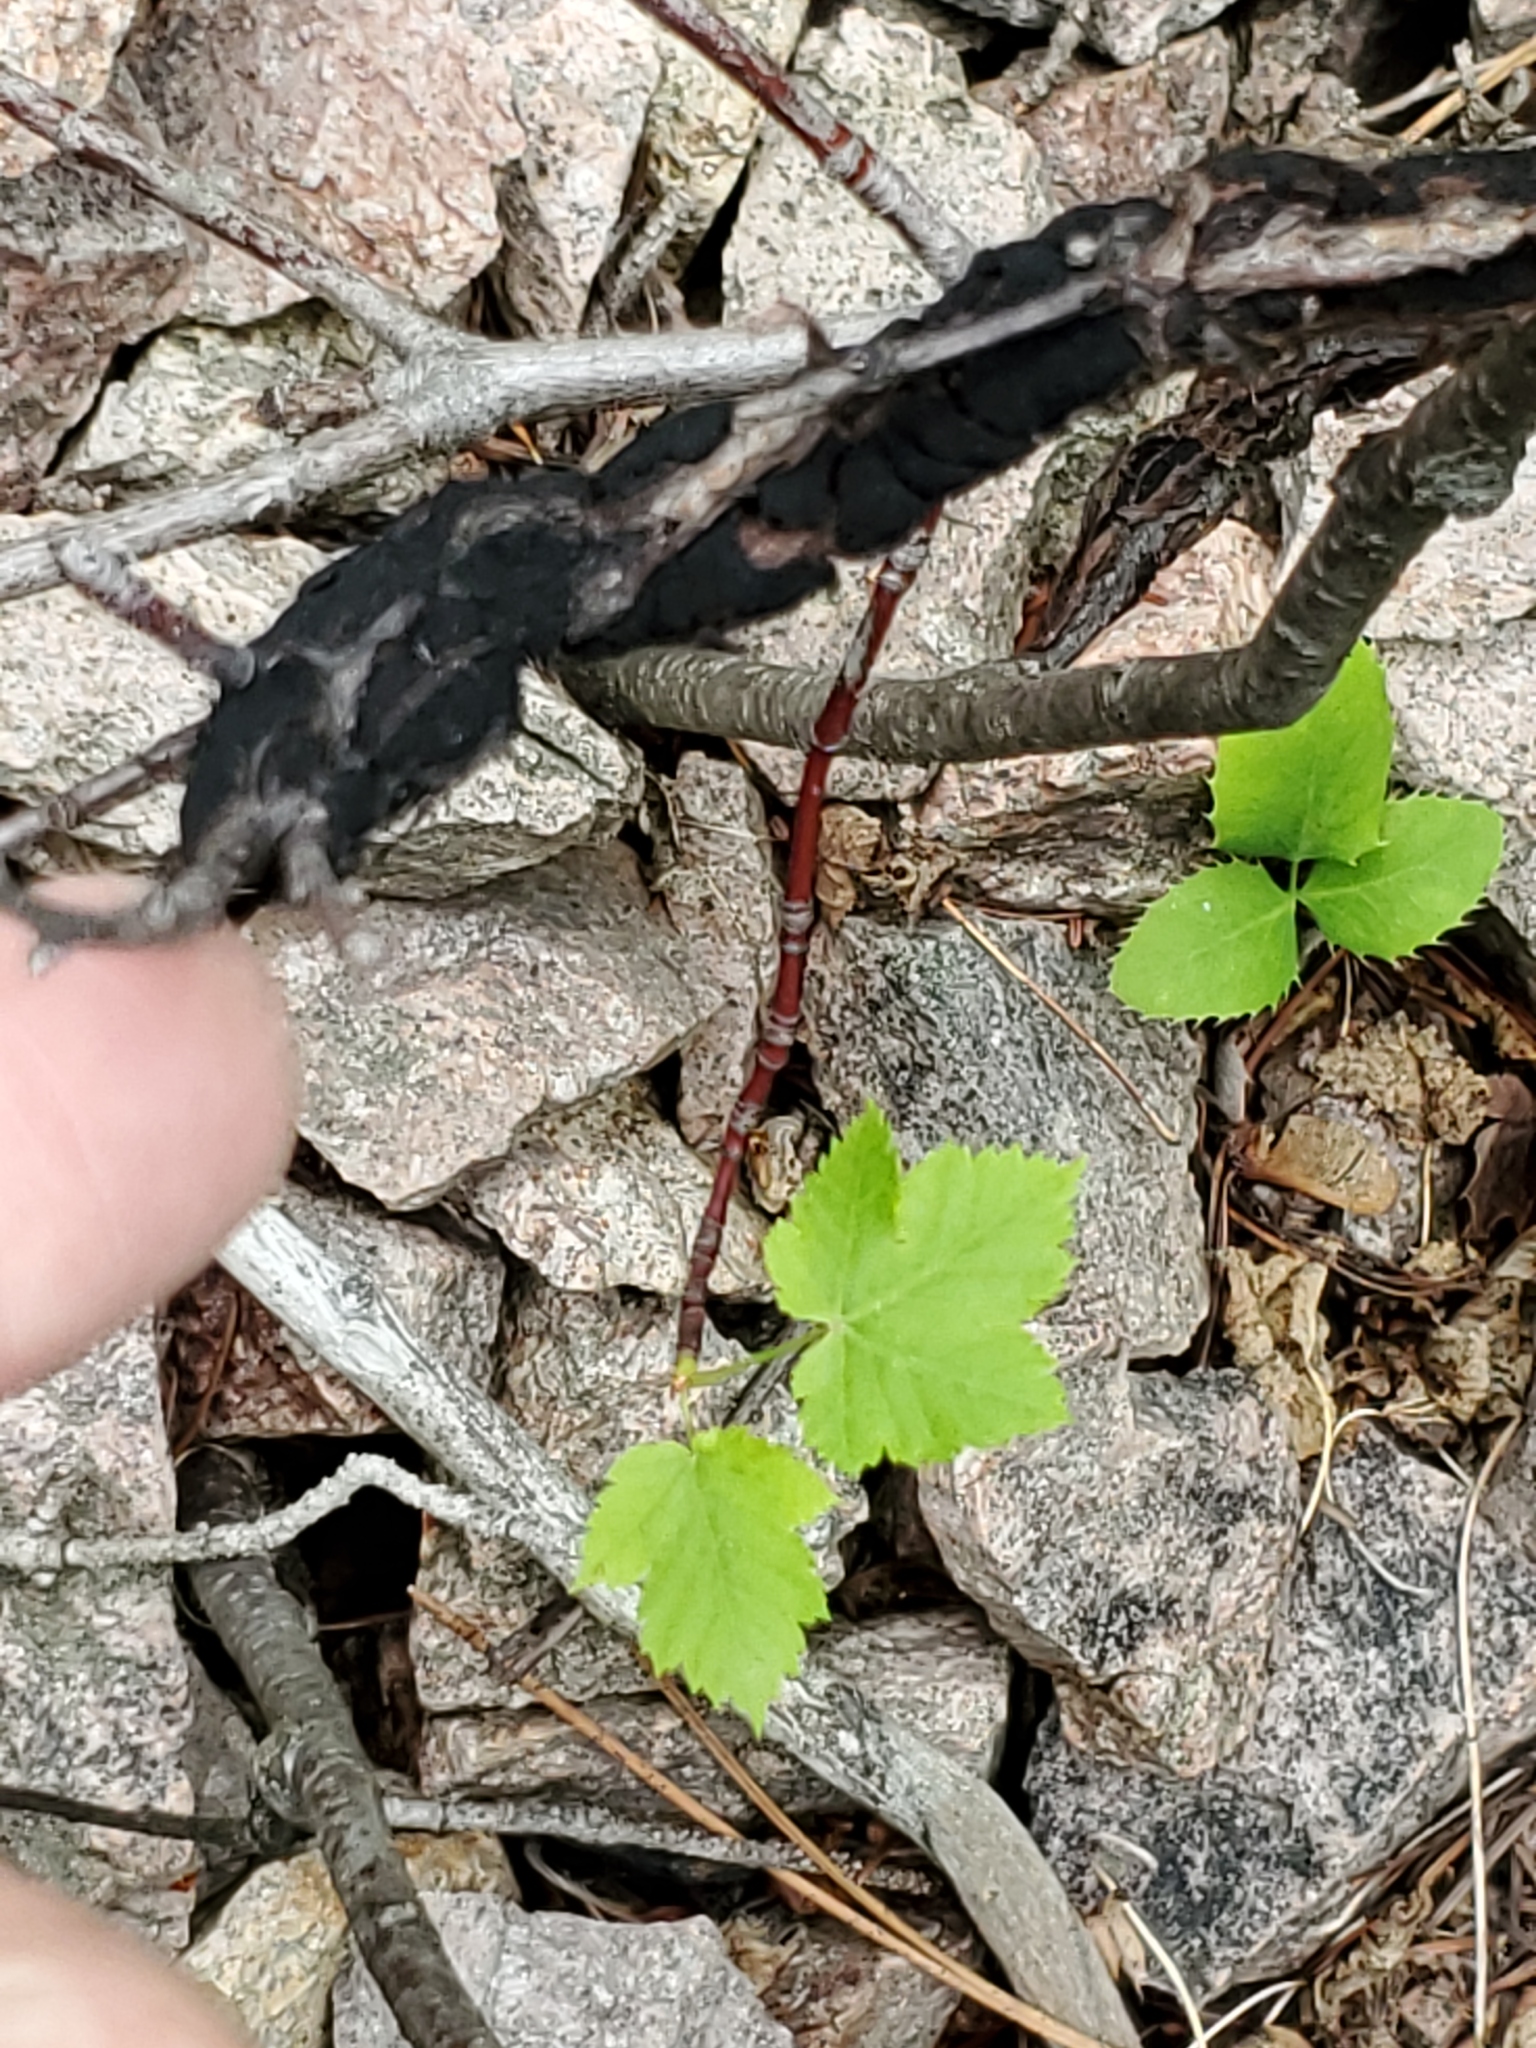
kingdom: Fungi
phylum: Ascomycota
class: Dothideomycetes
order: Venturiales
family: Venturiaceae
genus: Apiosporina
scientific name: Apiosporina morbosa
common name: Black knot
